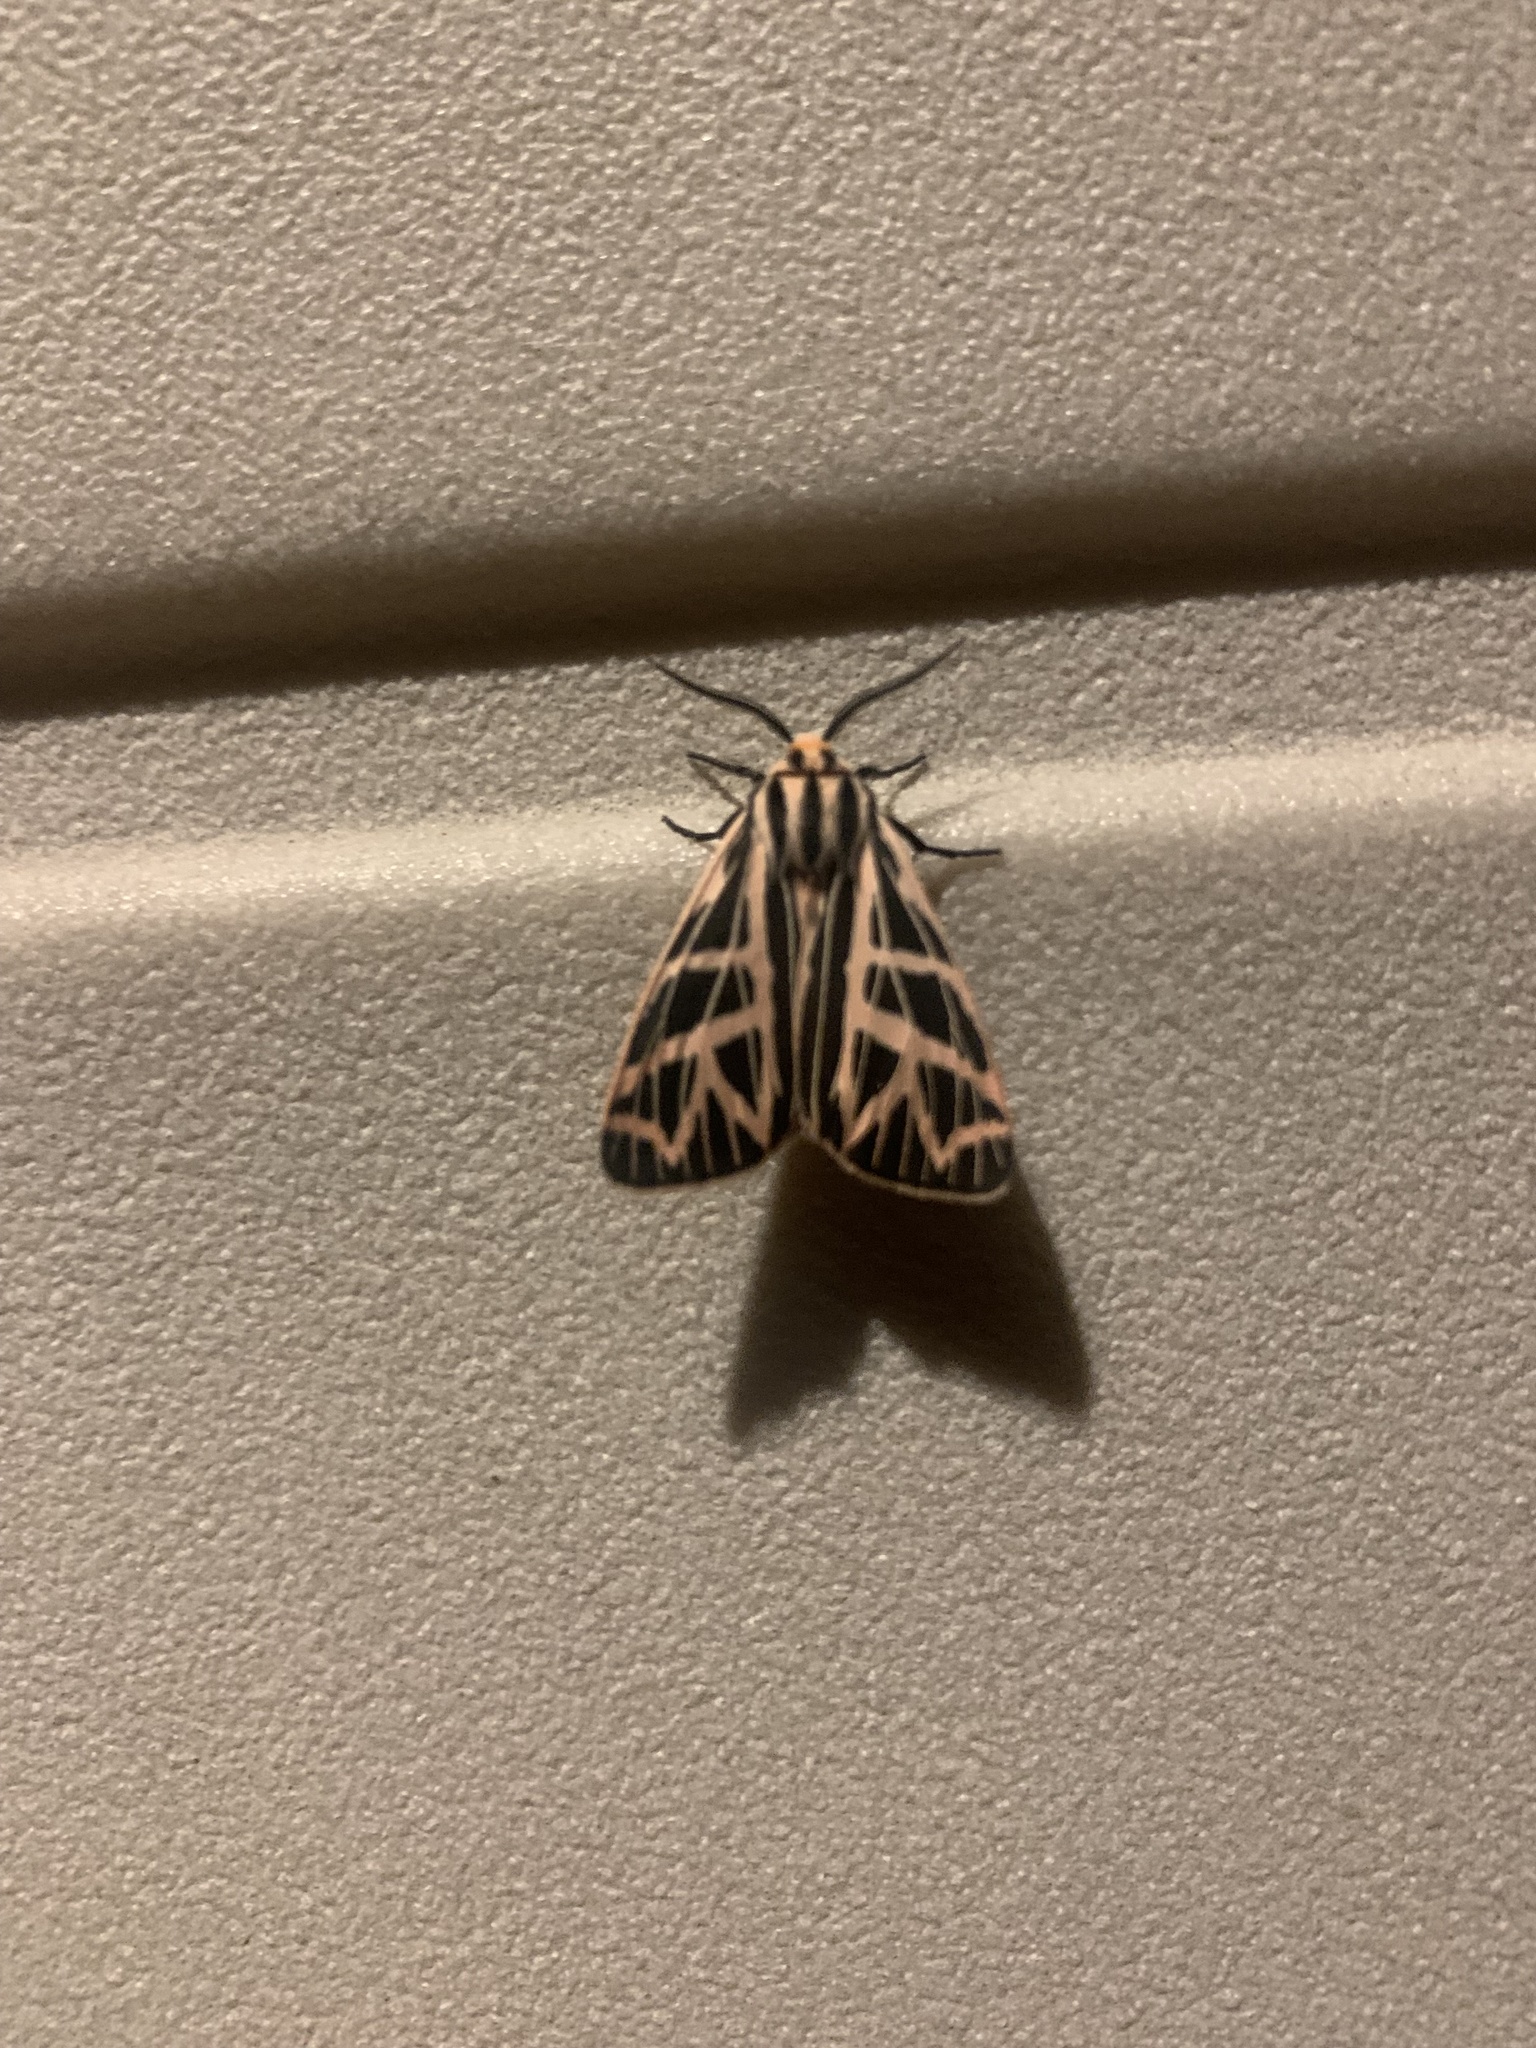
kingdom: Animalia
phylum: Arthropoda
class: Insecta
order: Lepidoptera
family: Erebidae
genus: Apantesis
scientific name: Apantesis
